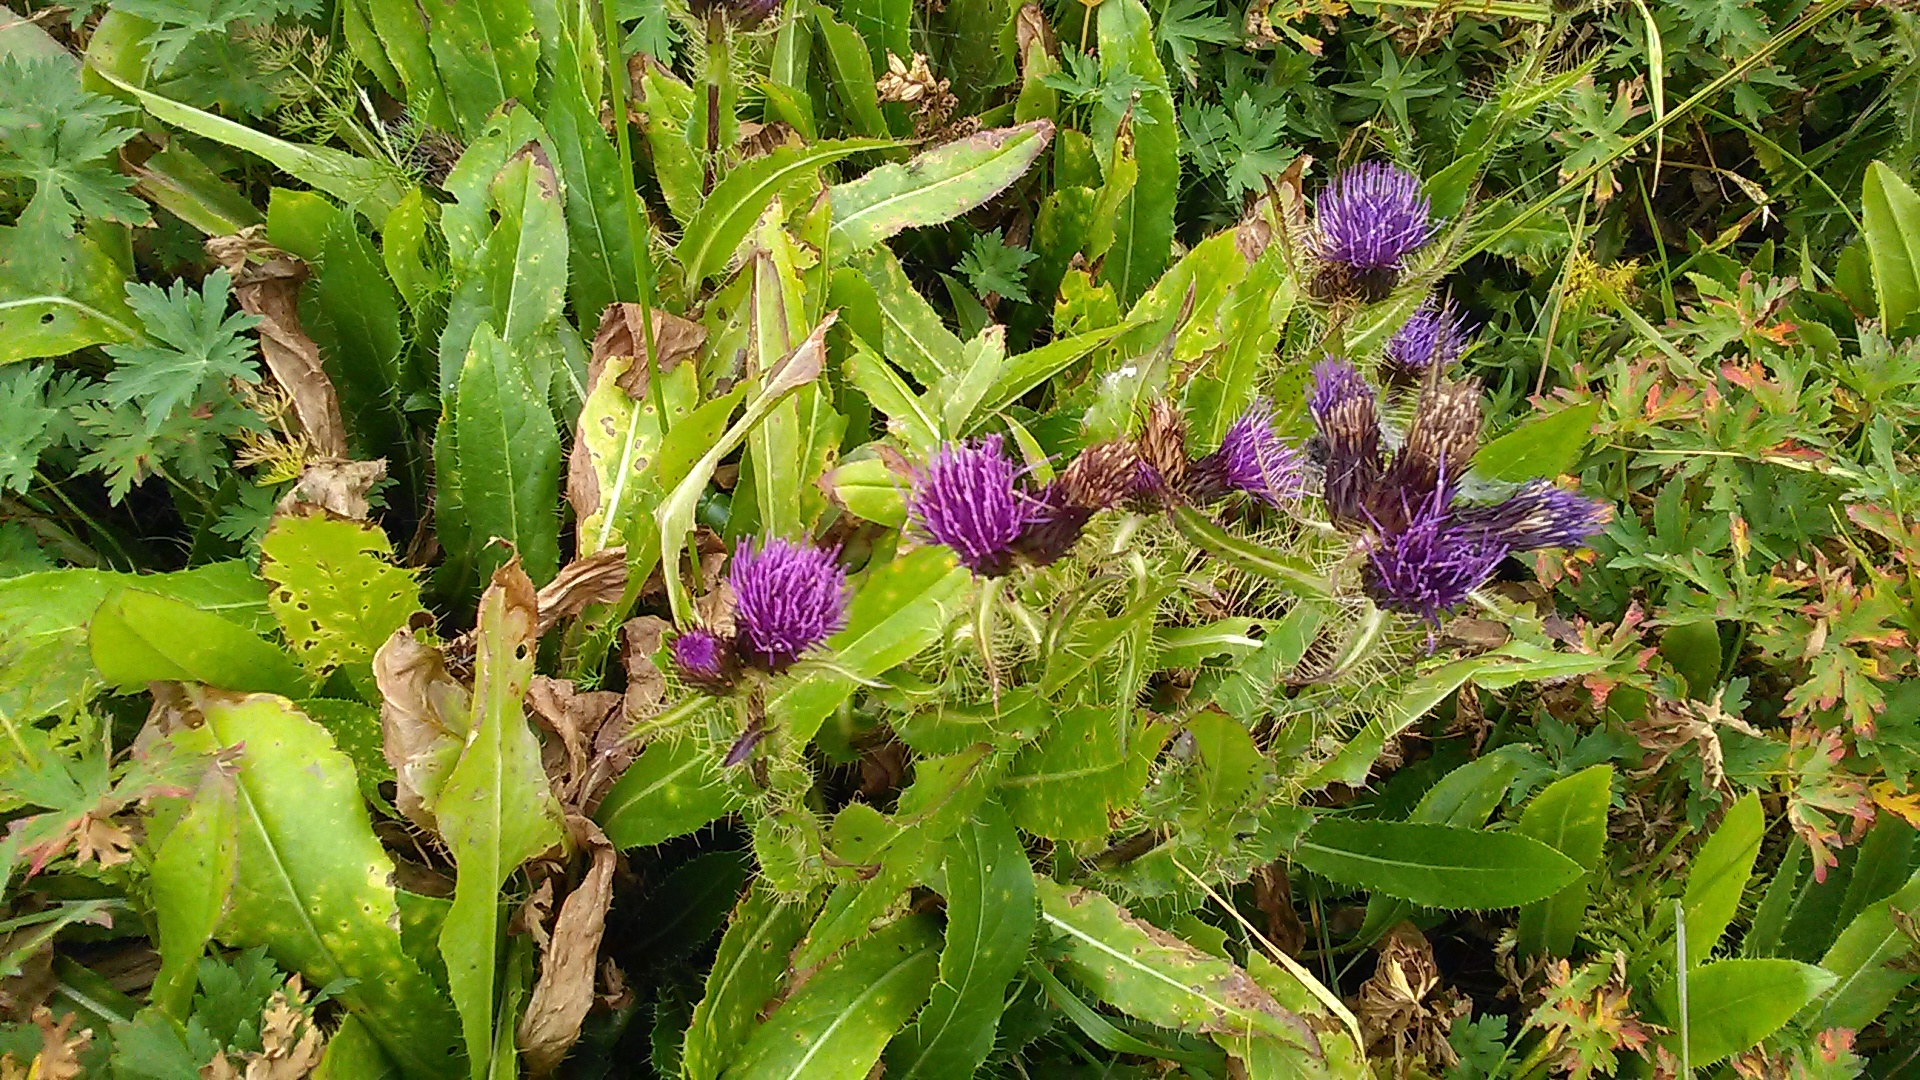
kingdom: Plantae
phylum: Tracheophyta
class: Magnoliopsida
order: Asterales
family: Asteraceae
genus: Cirsium
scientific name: Cirsium simplex
